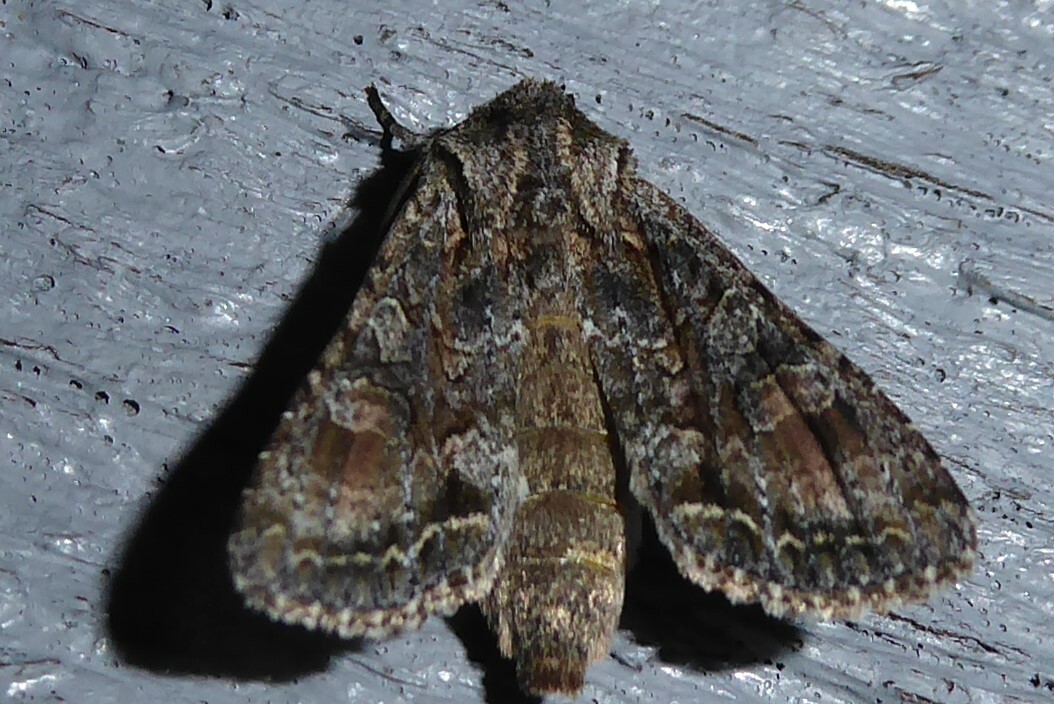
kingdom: Animalia
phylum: Arthropoda
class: Insecta
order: Lepidoptera
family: Noctuidae
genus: Ichneutica
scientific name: Ichneutica mutans
